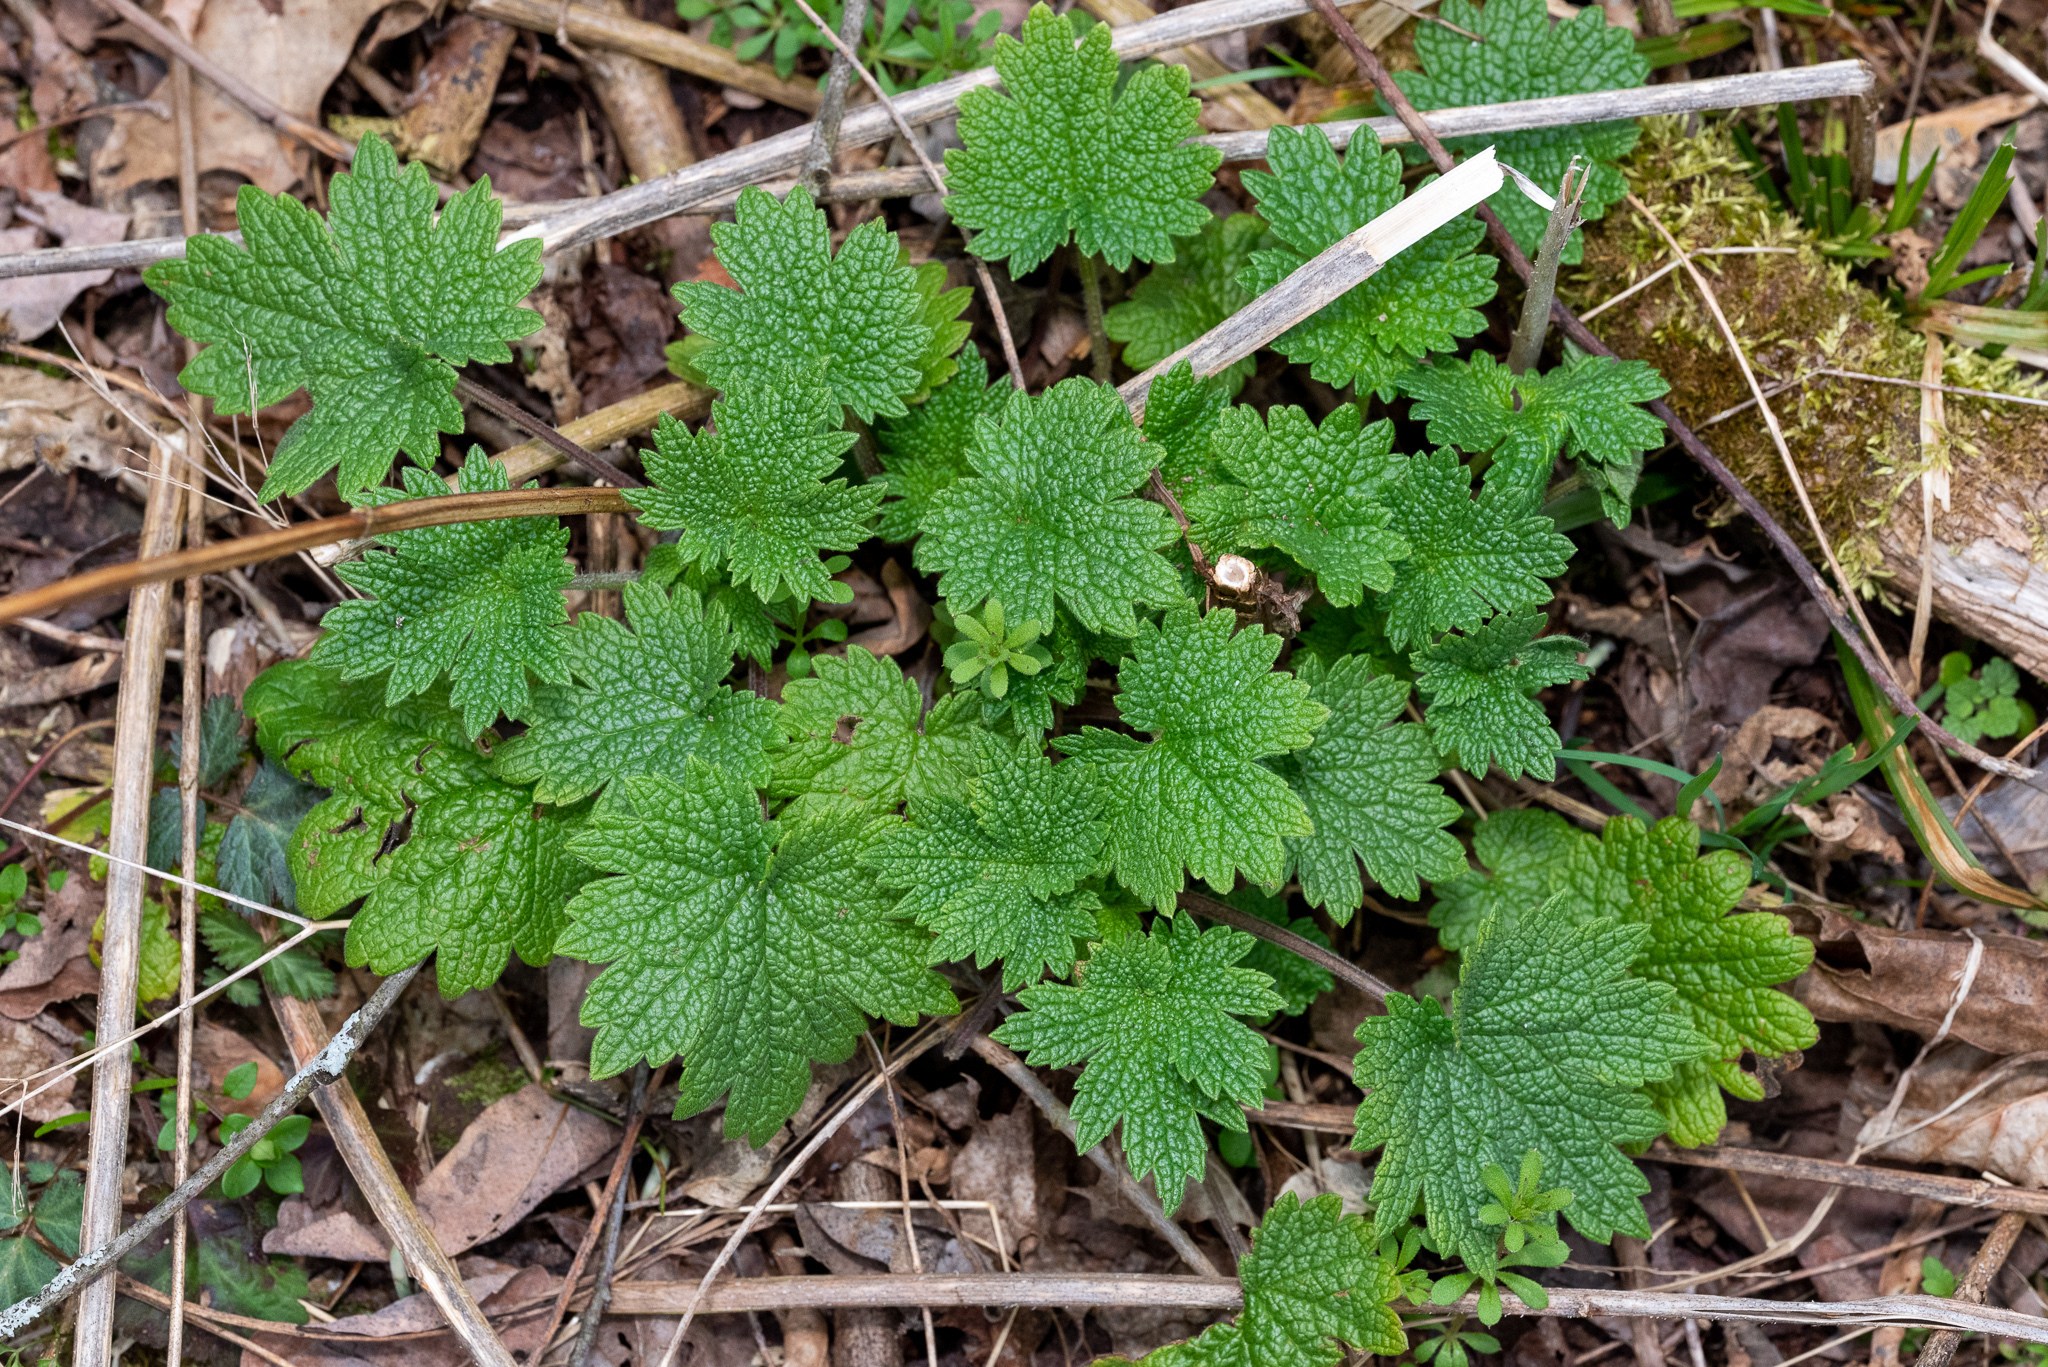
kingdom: Plantae
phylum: Tracheophyta
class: Magnoliopsida
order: Lamiales
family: Lamiaceae
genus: Leonurus
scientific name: Leonurus cardiaca
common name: Motherwort
